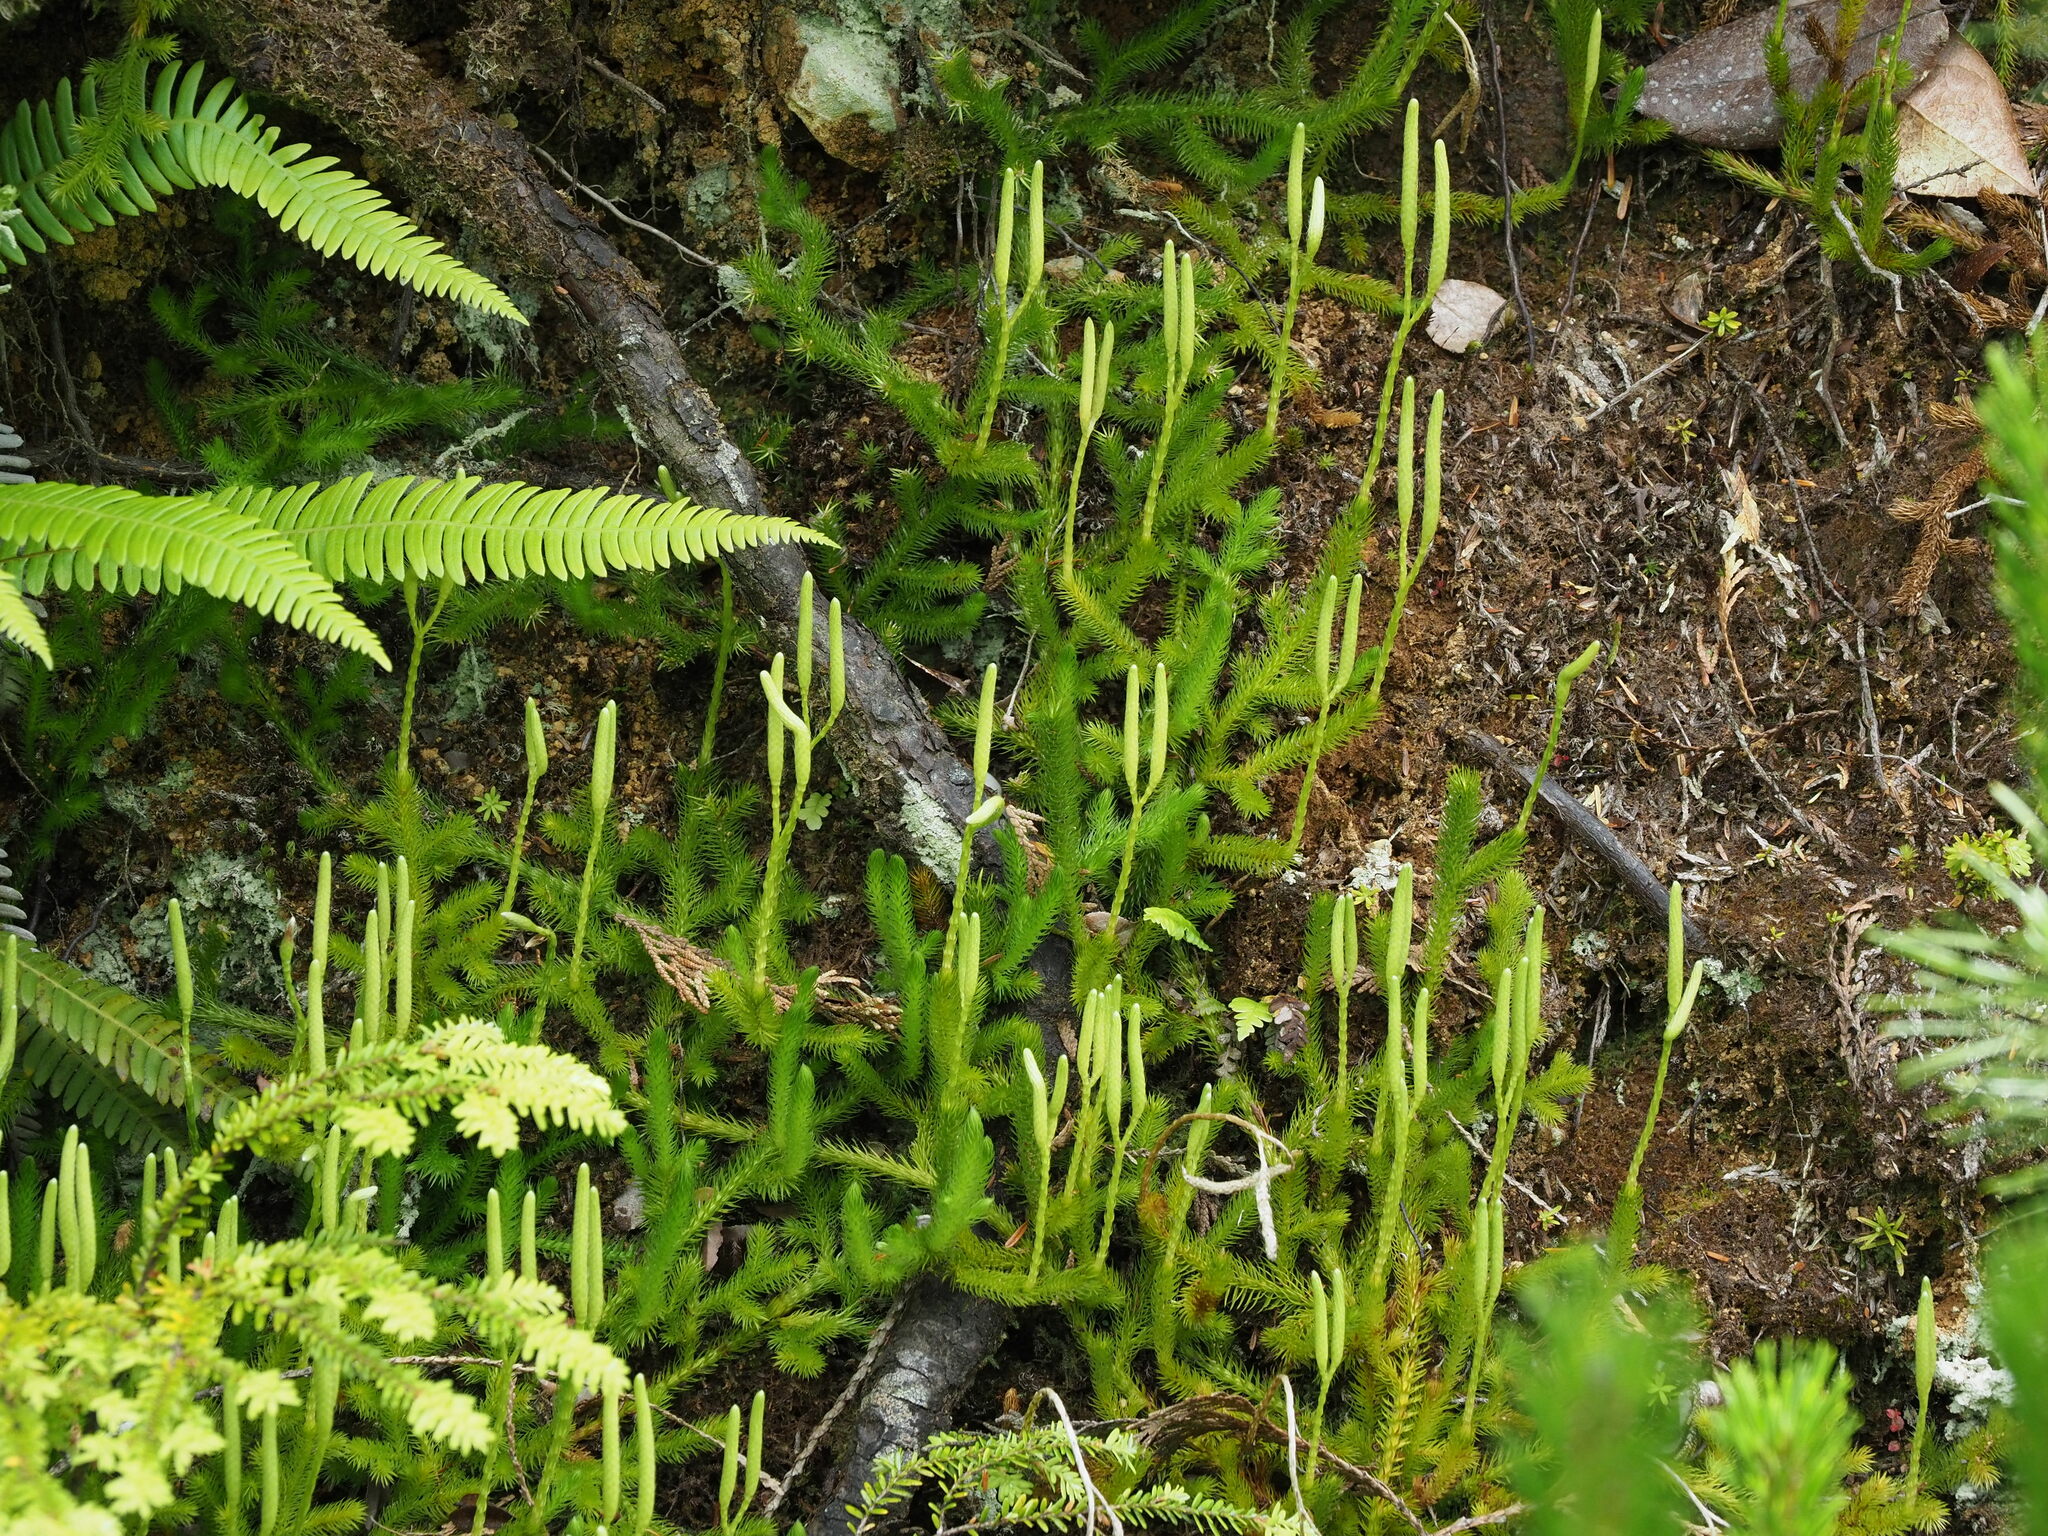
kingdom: Plantae
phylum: Tracheophyta
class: Lycopodiopsida
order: Lycopodiales
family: Lycopodiaceae
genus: Lycopodium
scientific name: Lycopodium clavatum
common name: Stag's-horn clubmoss
